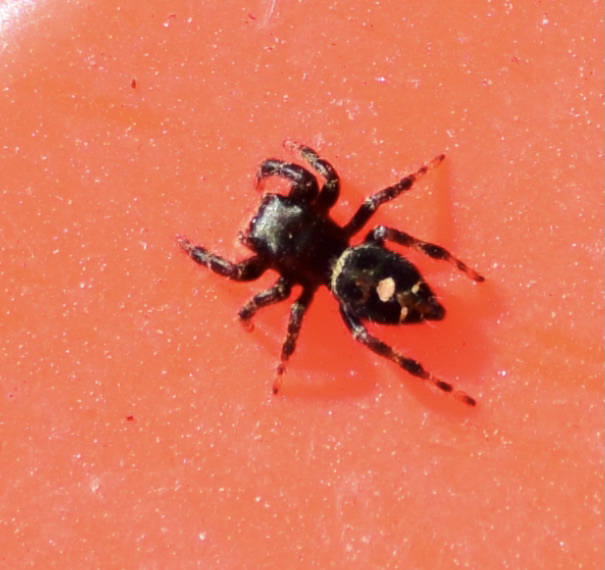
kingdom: Animalia
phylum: Arthropoda
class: Arachnida
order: Araneae
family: Salticidae
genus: Phidippus
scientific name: Phidippus audax
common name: Bold jumper
